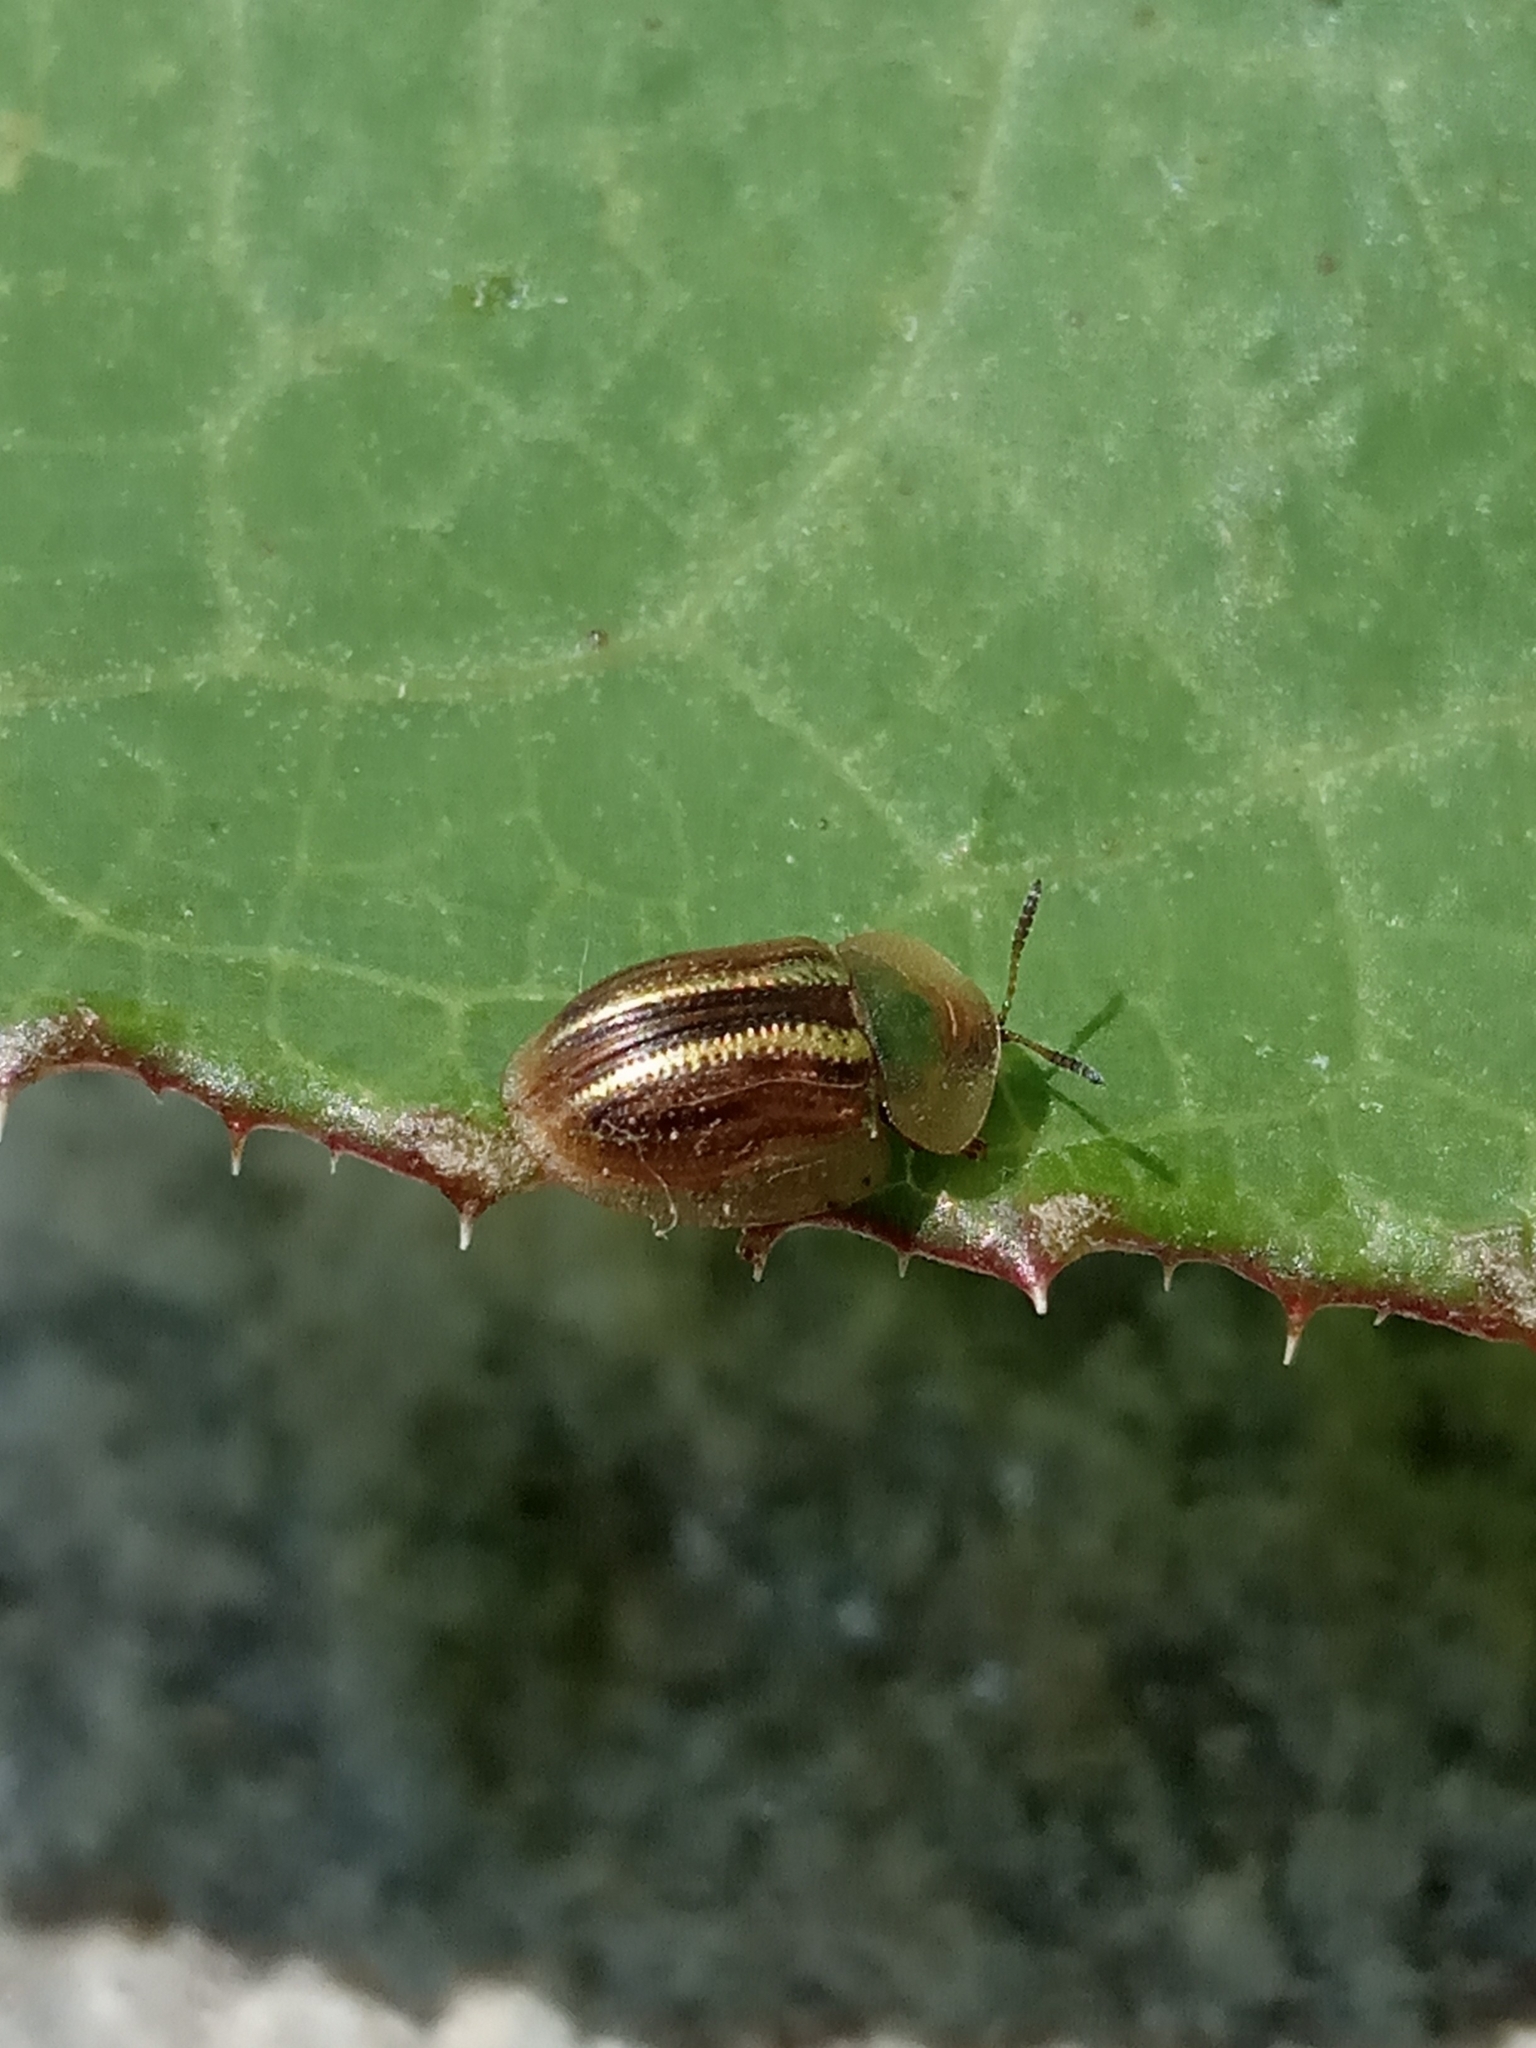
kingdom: Animalia
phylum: Arthropoda
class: Insecta
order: Coleoptera
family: Chrysomelidae
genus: Cassida
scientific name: Cassida nobilis
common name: Leaf beetle
